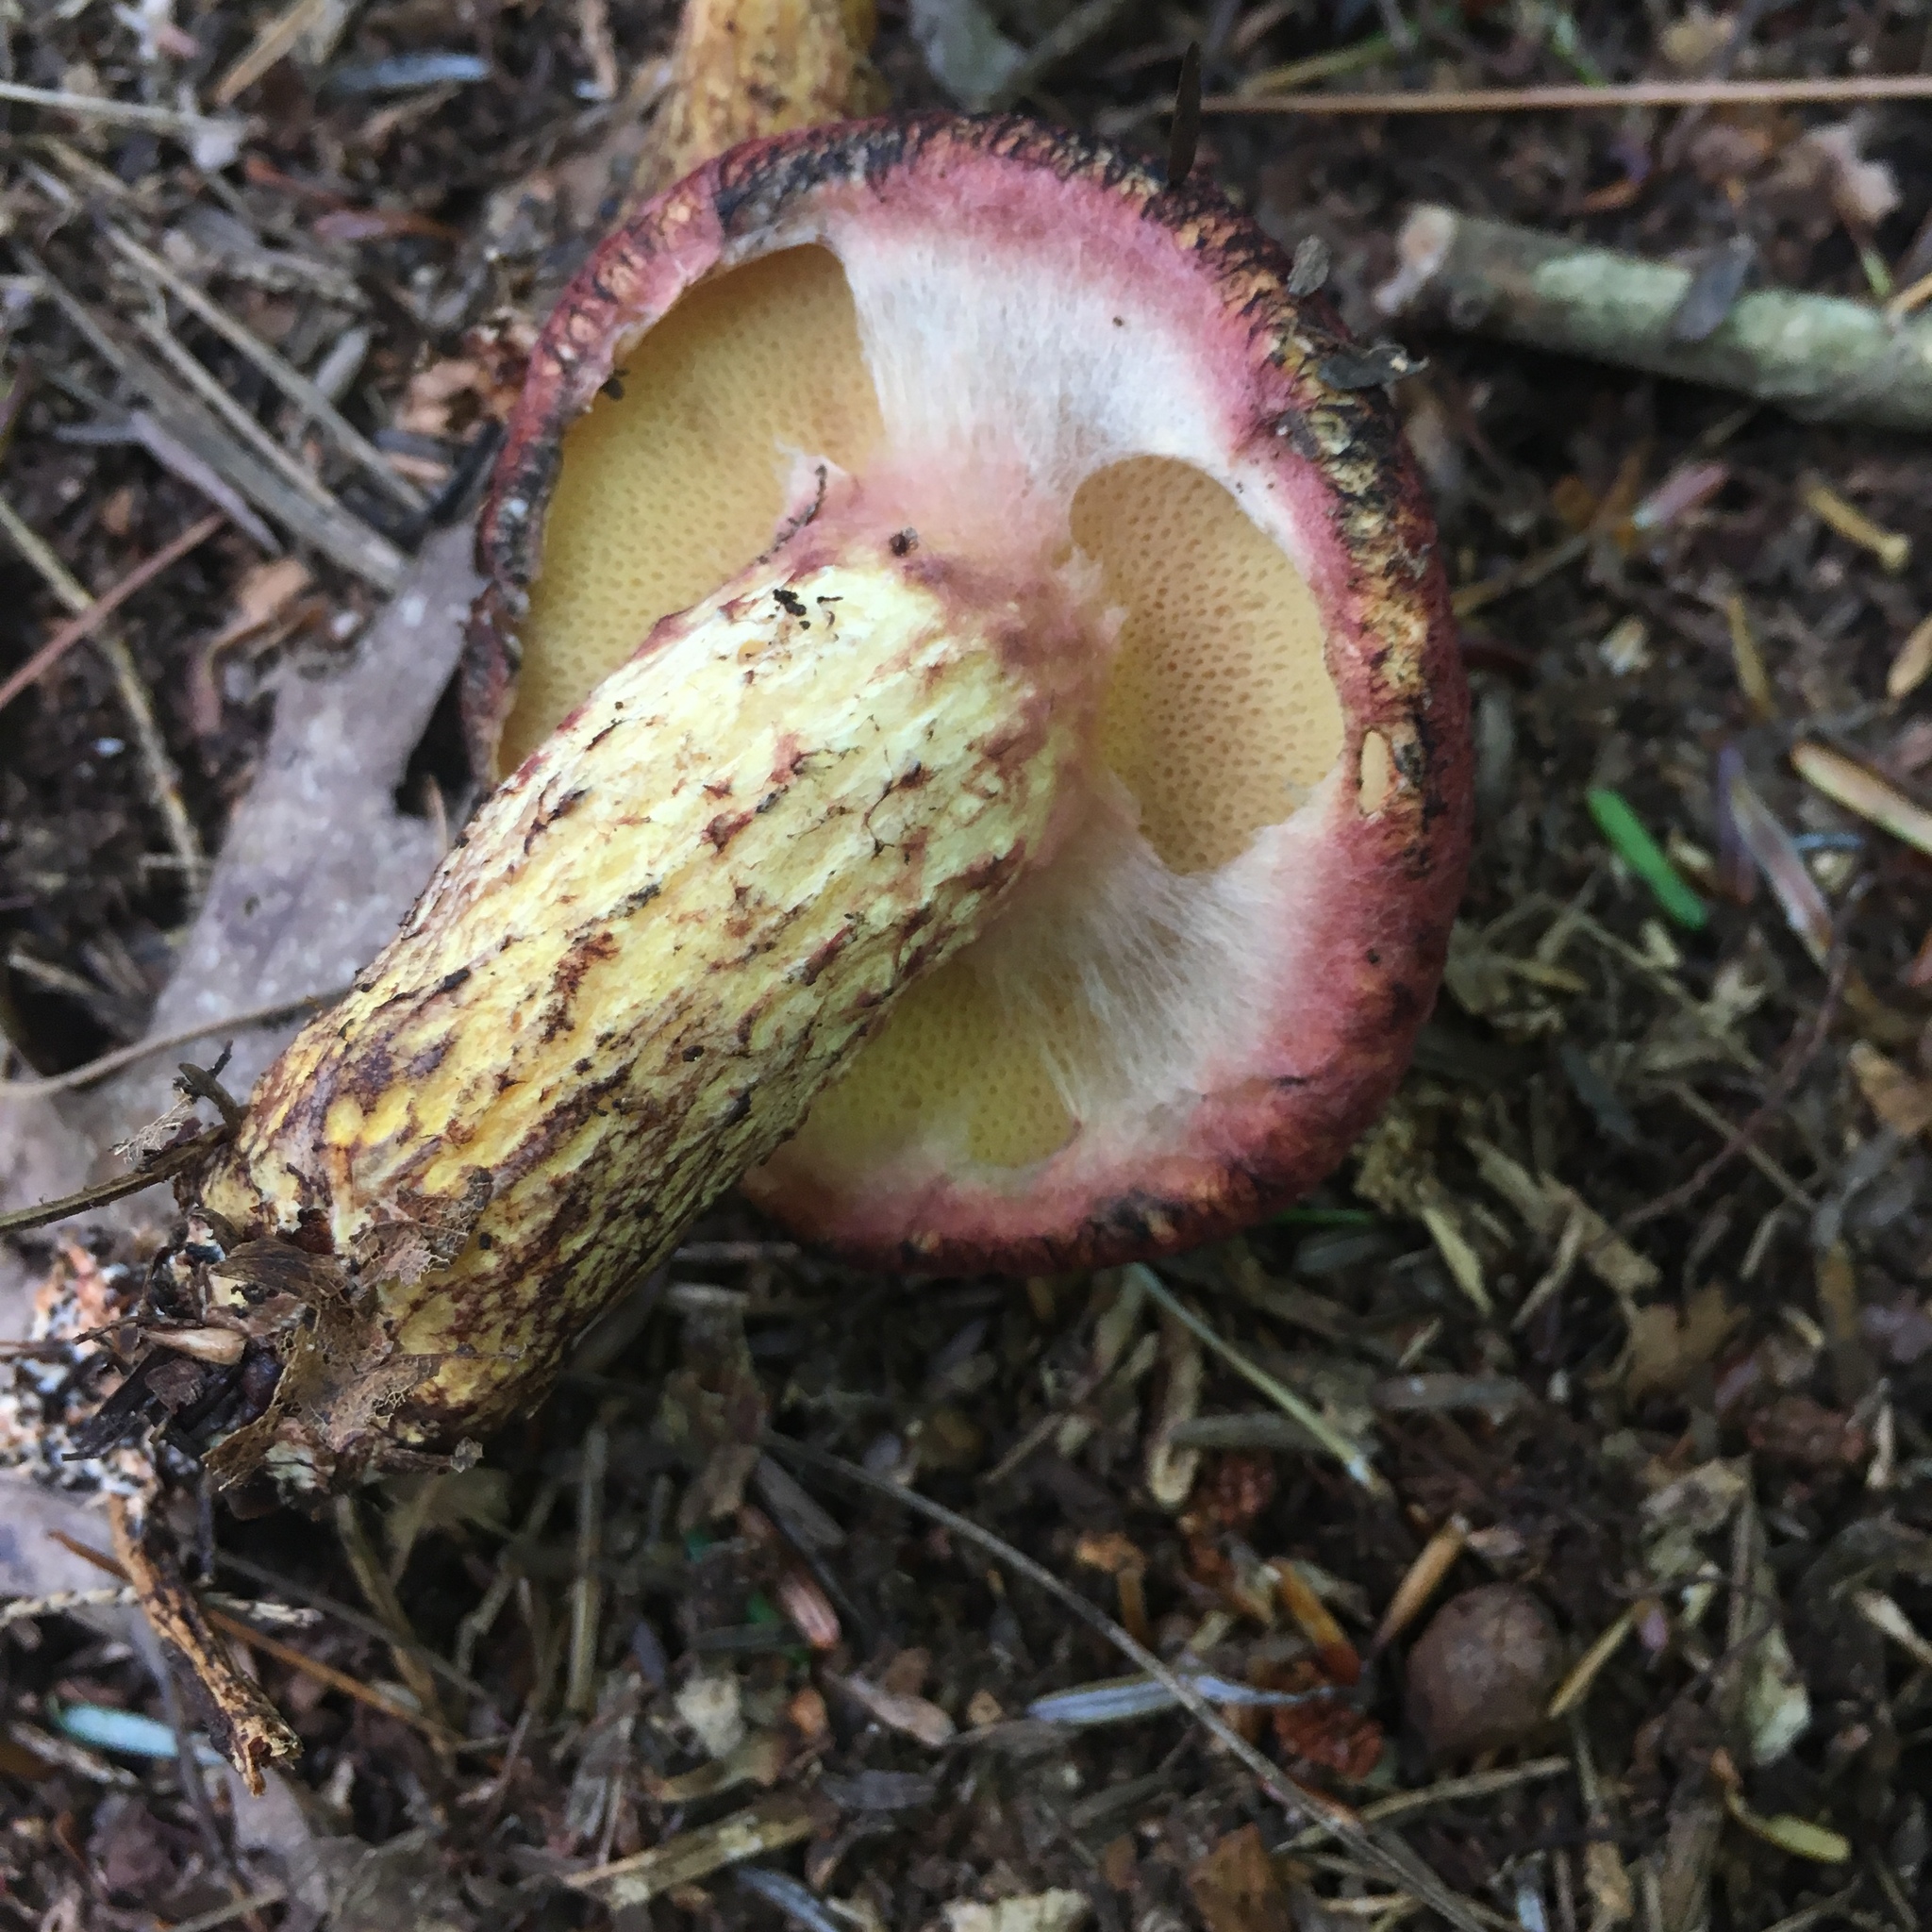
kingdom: Fungi
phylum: Basidiomycota
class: Agaricomycetes
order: Boletales
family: Suillaceae
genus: Suillus
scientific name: Suillus spraguei
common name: Painted suillus
